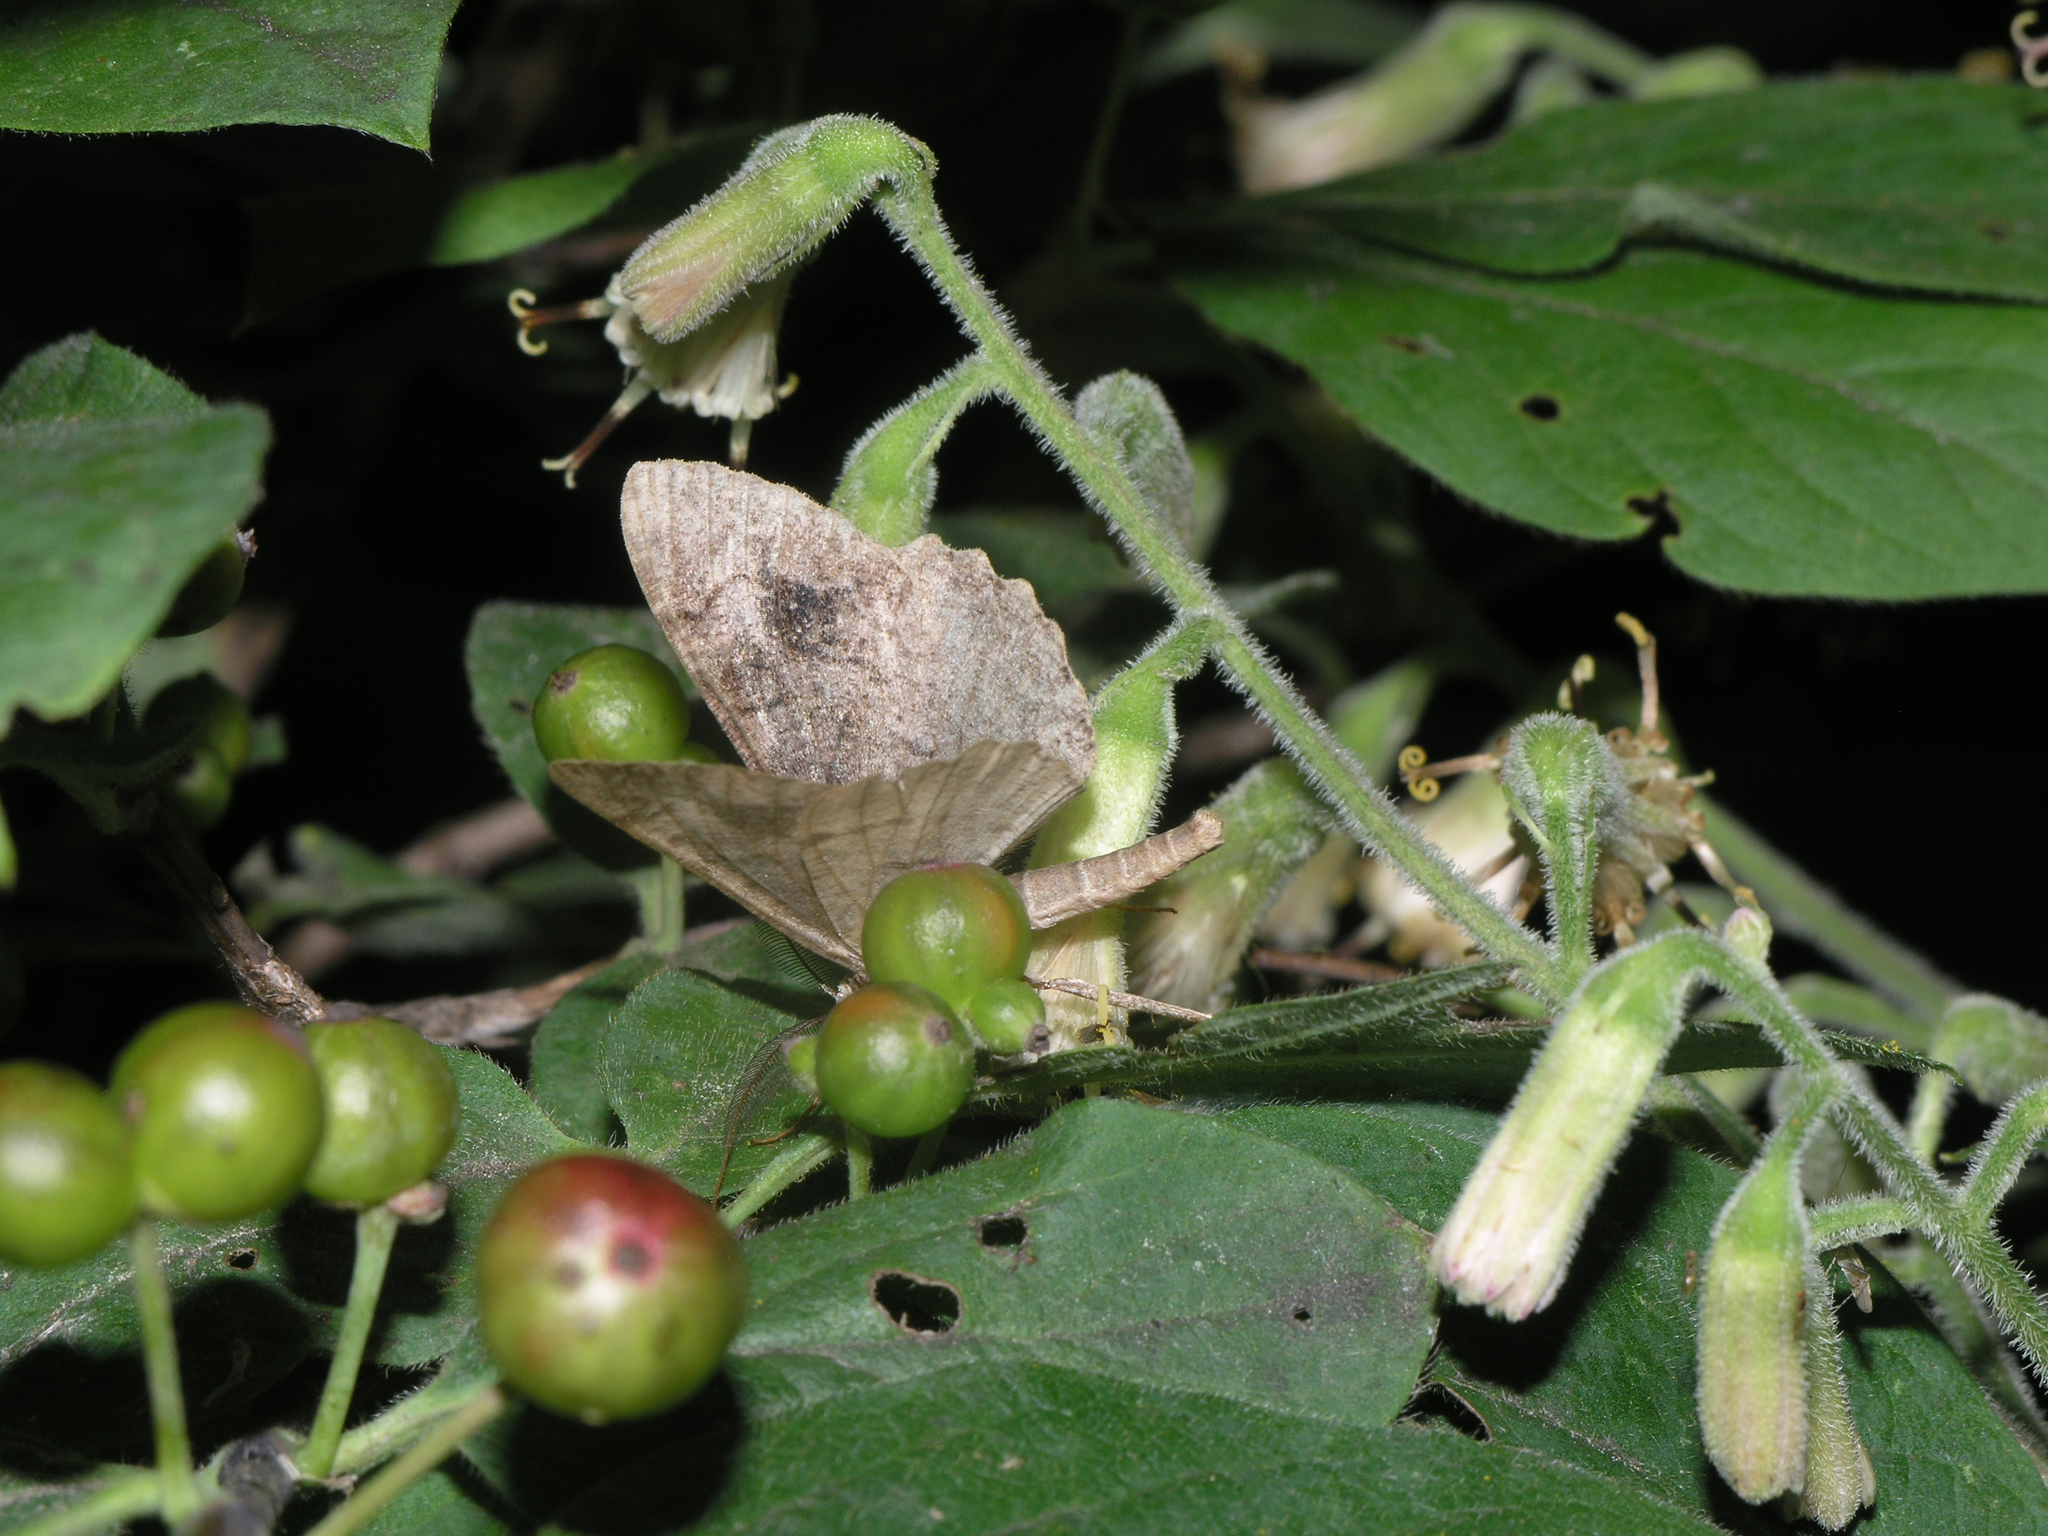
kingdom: Plantae
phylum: Tracheophyta
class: Magnoliopsida
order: Asterales
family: Asteraceae
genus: Parasenecio
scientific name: Parasenecio hastatus
